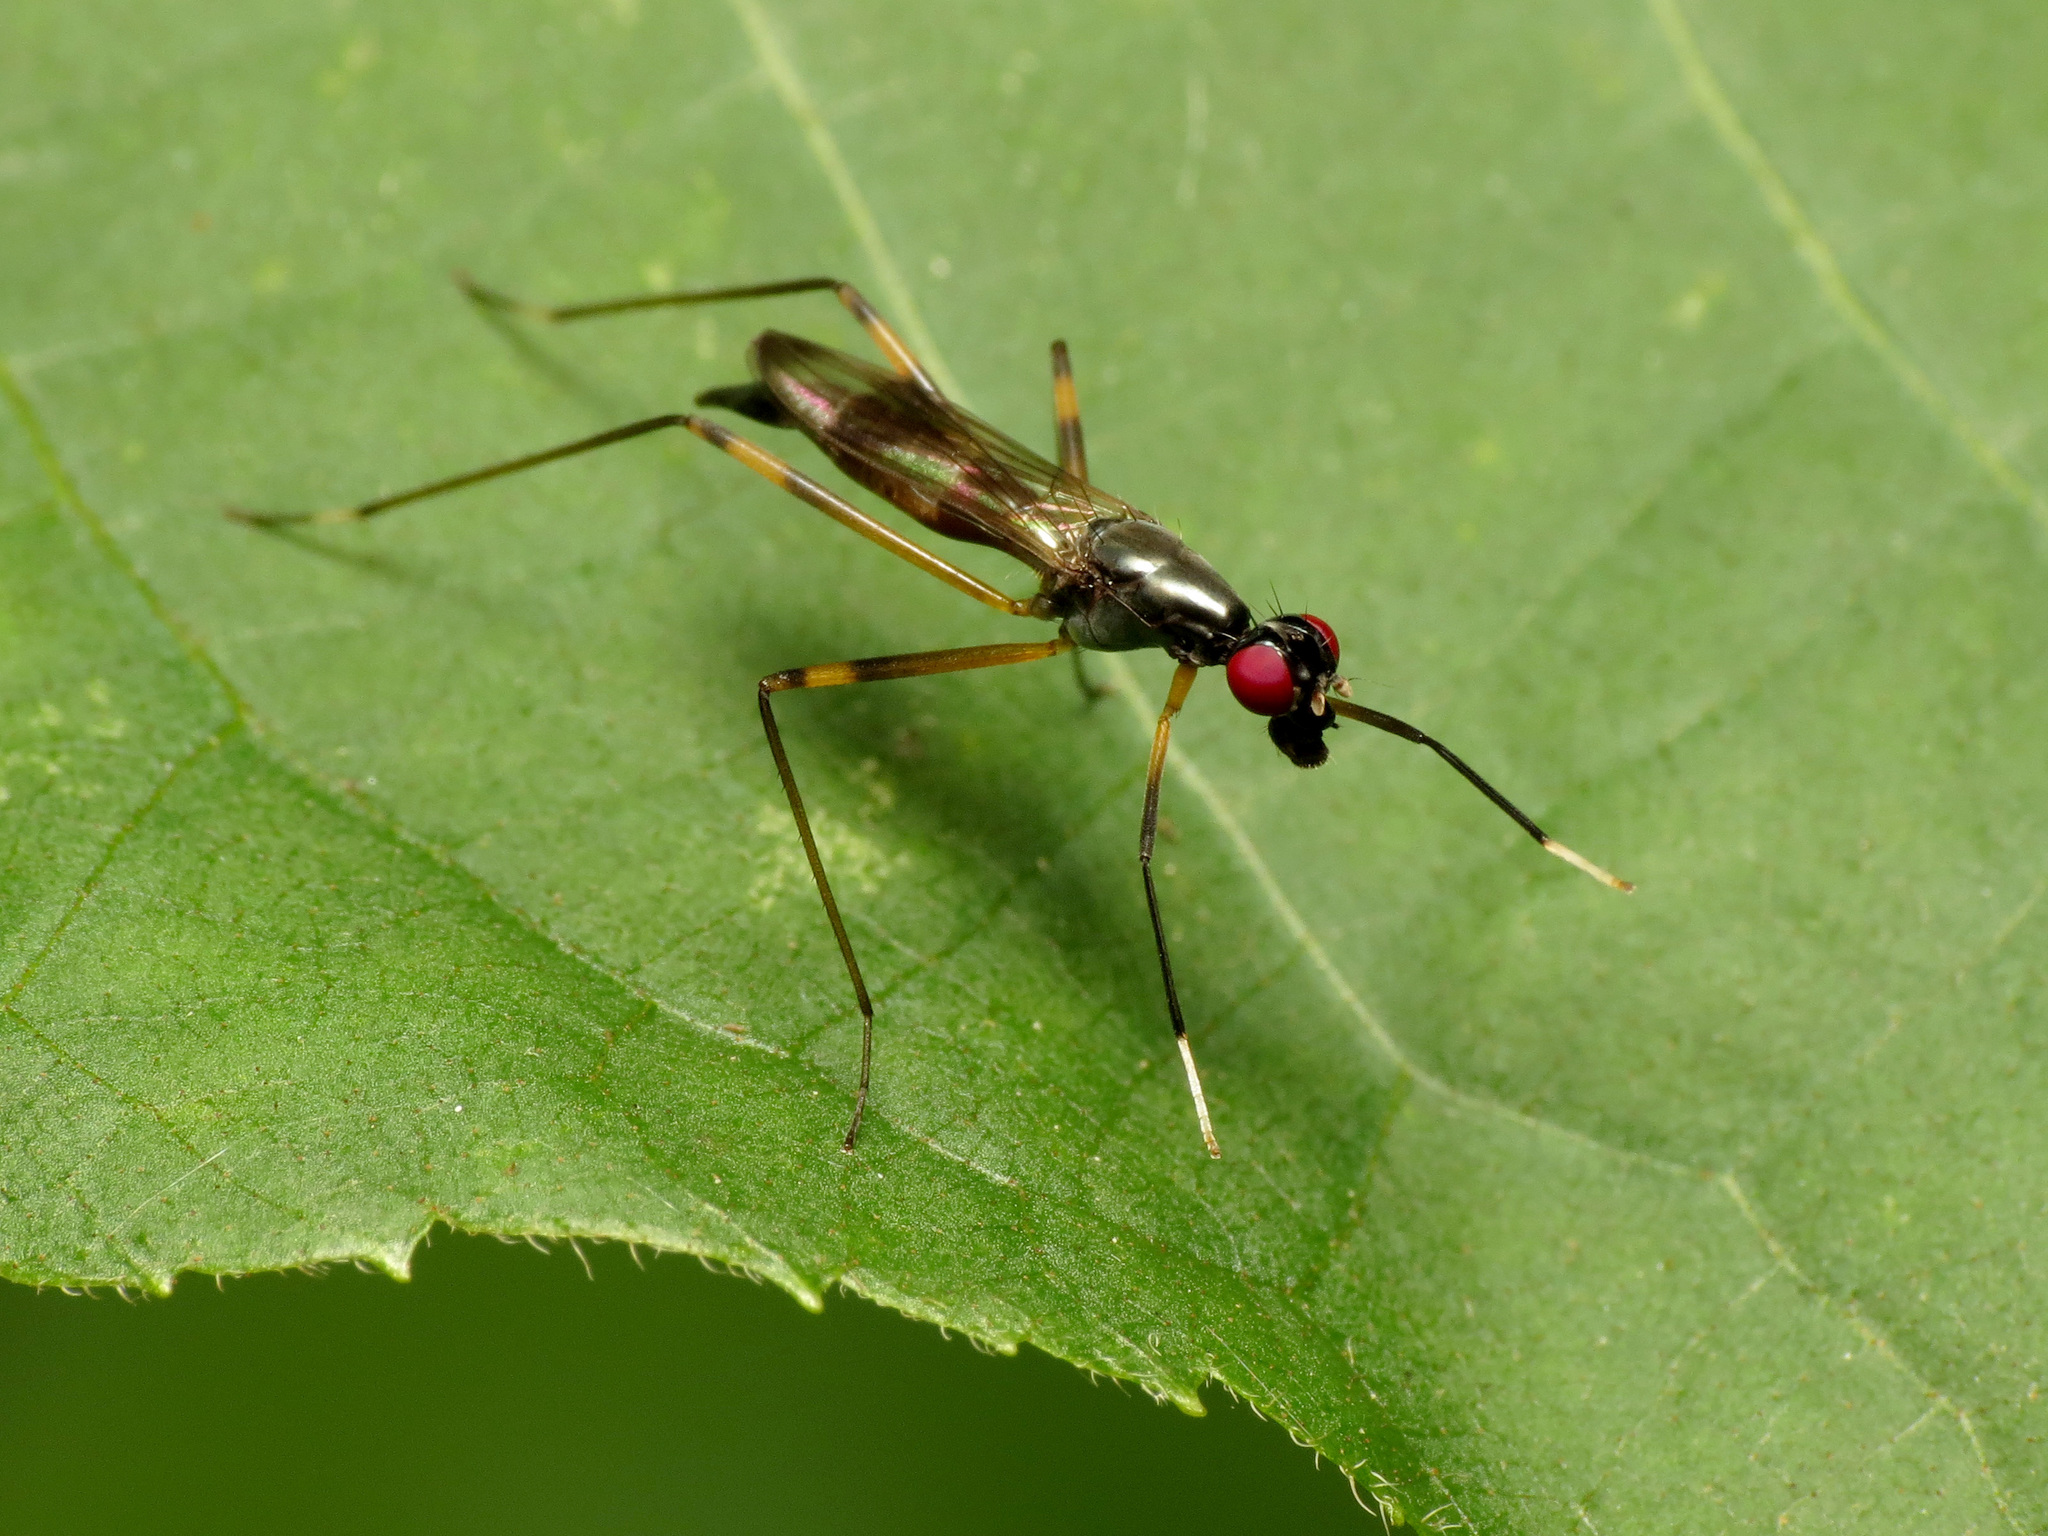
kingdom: Animalia
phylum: Arthropoda
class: Insecta
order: Diptera
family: Micropezidae
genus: Rainieria
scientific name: Rainieria antennaepes
